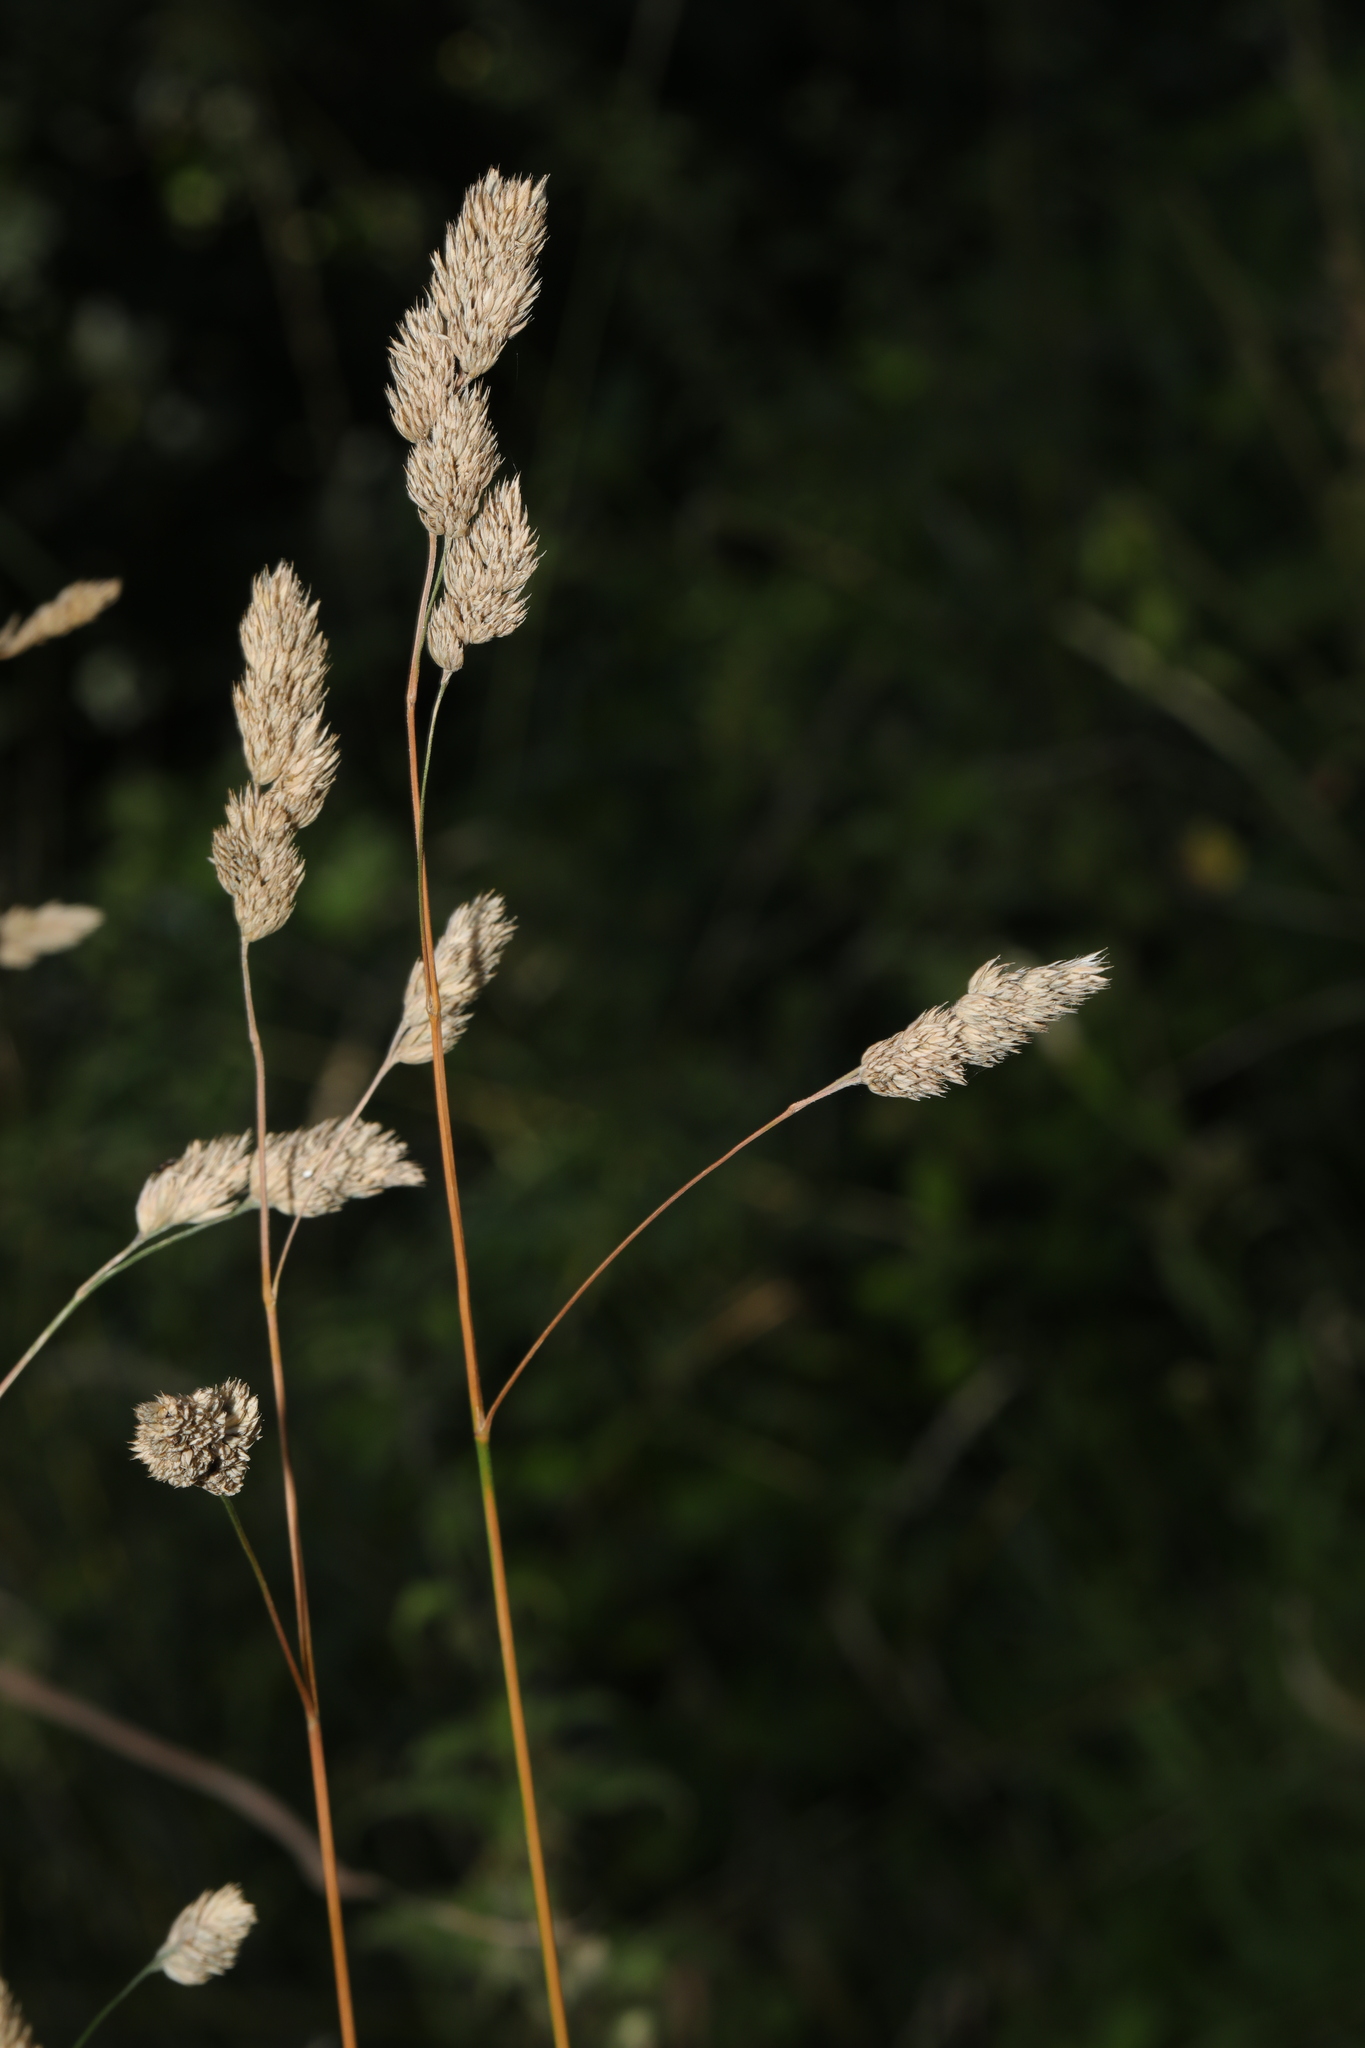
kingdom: Plantae
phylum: Tracheophyta
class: Liliopsida
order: Poales
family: Poaceae
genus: Dactylis
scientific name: Dactylis glomerata
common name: Orchardgrass
